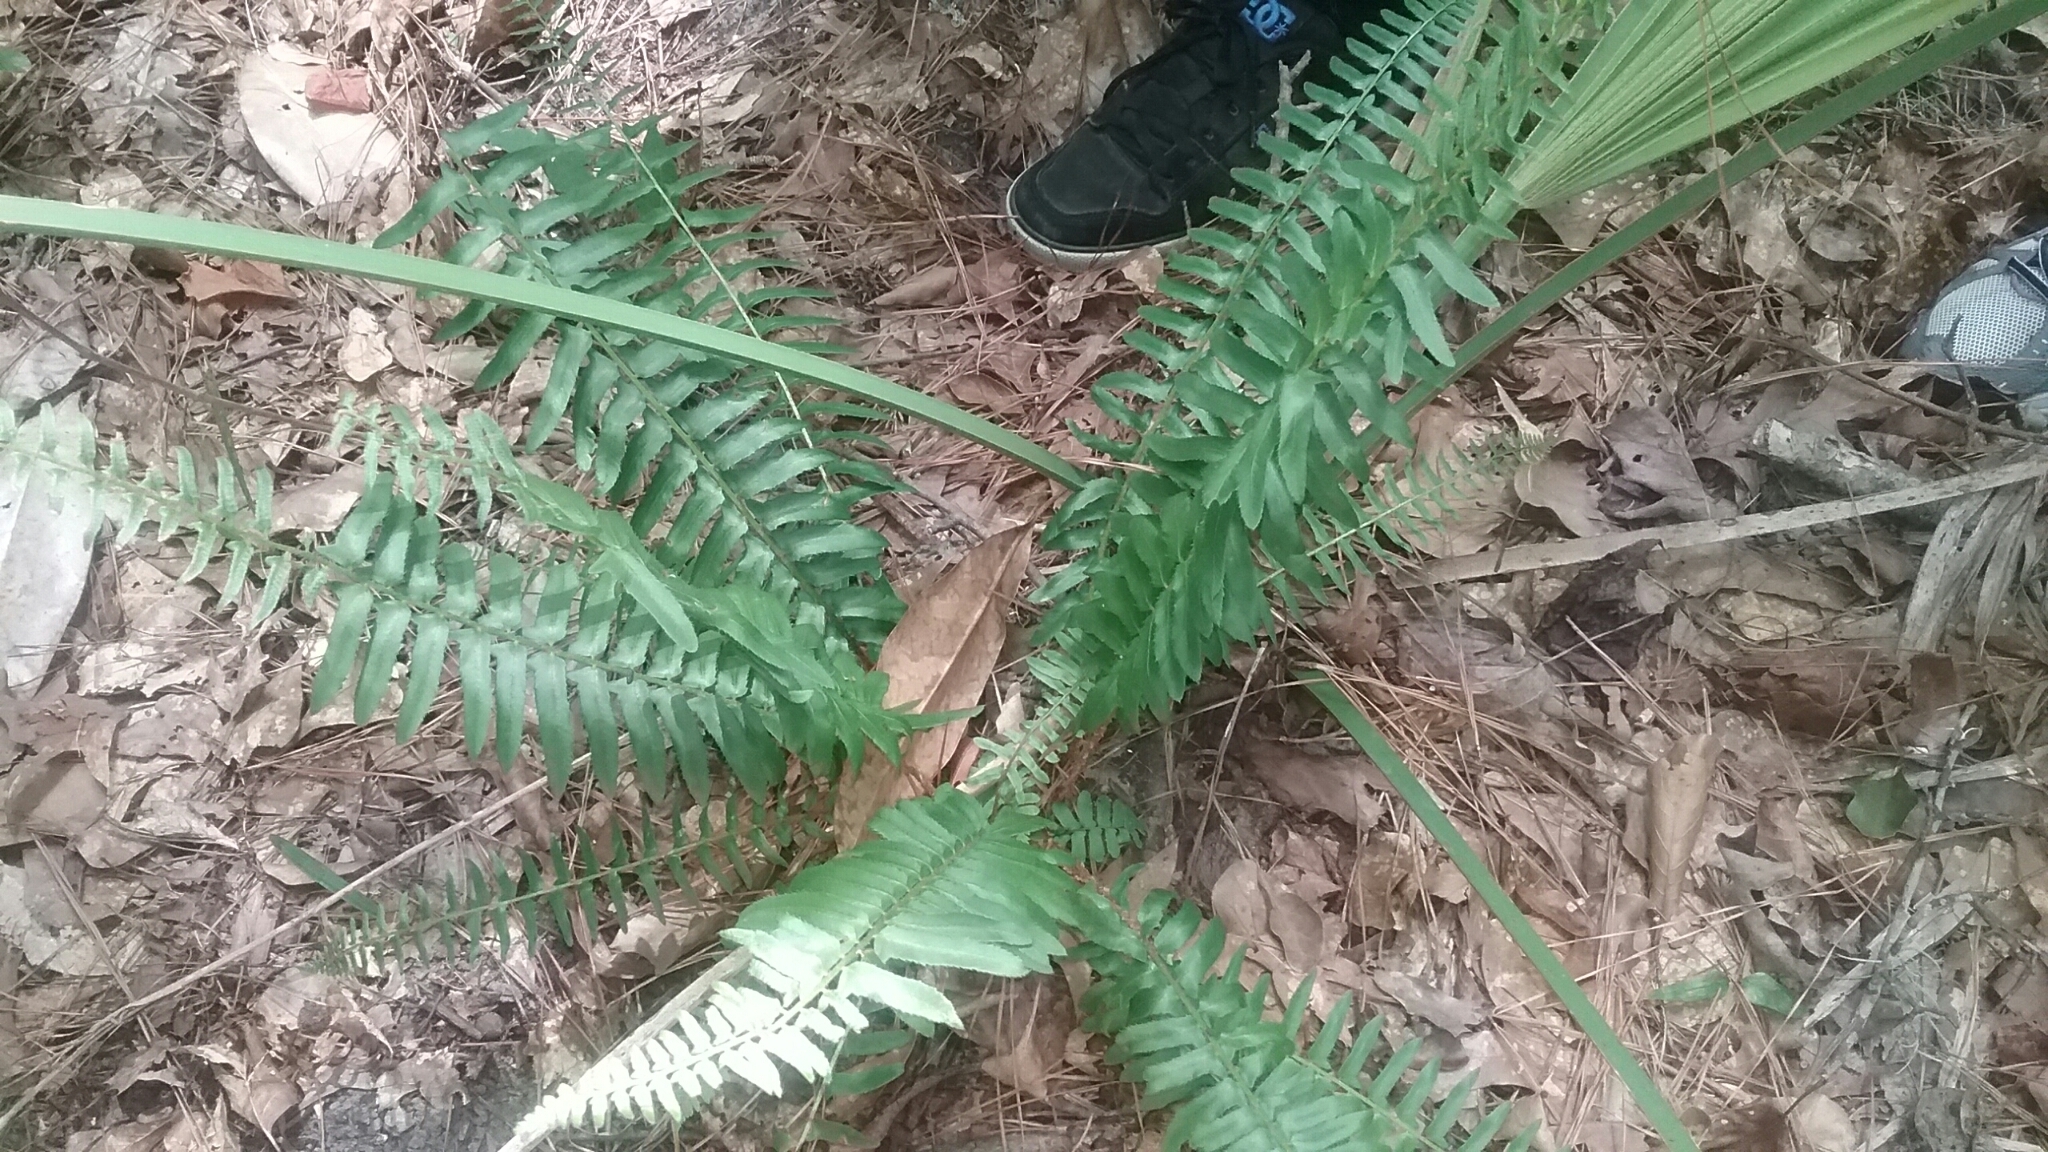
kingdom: Plantae
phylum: Tracheophyta
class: Polypodiopsida
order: Polypodiales
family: Dryopteridaceae
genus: Polystichum
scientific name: Polystichum acrostichoides
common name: Christmas fern
